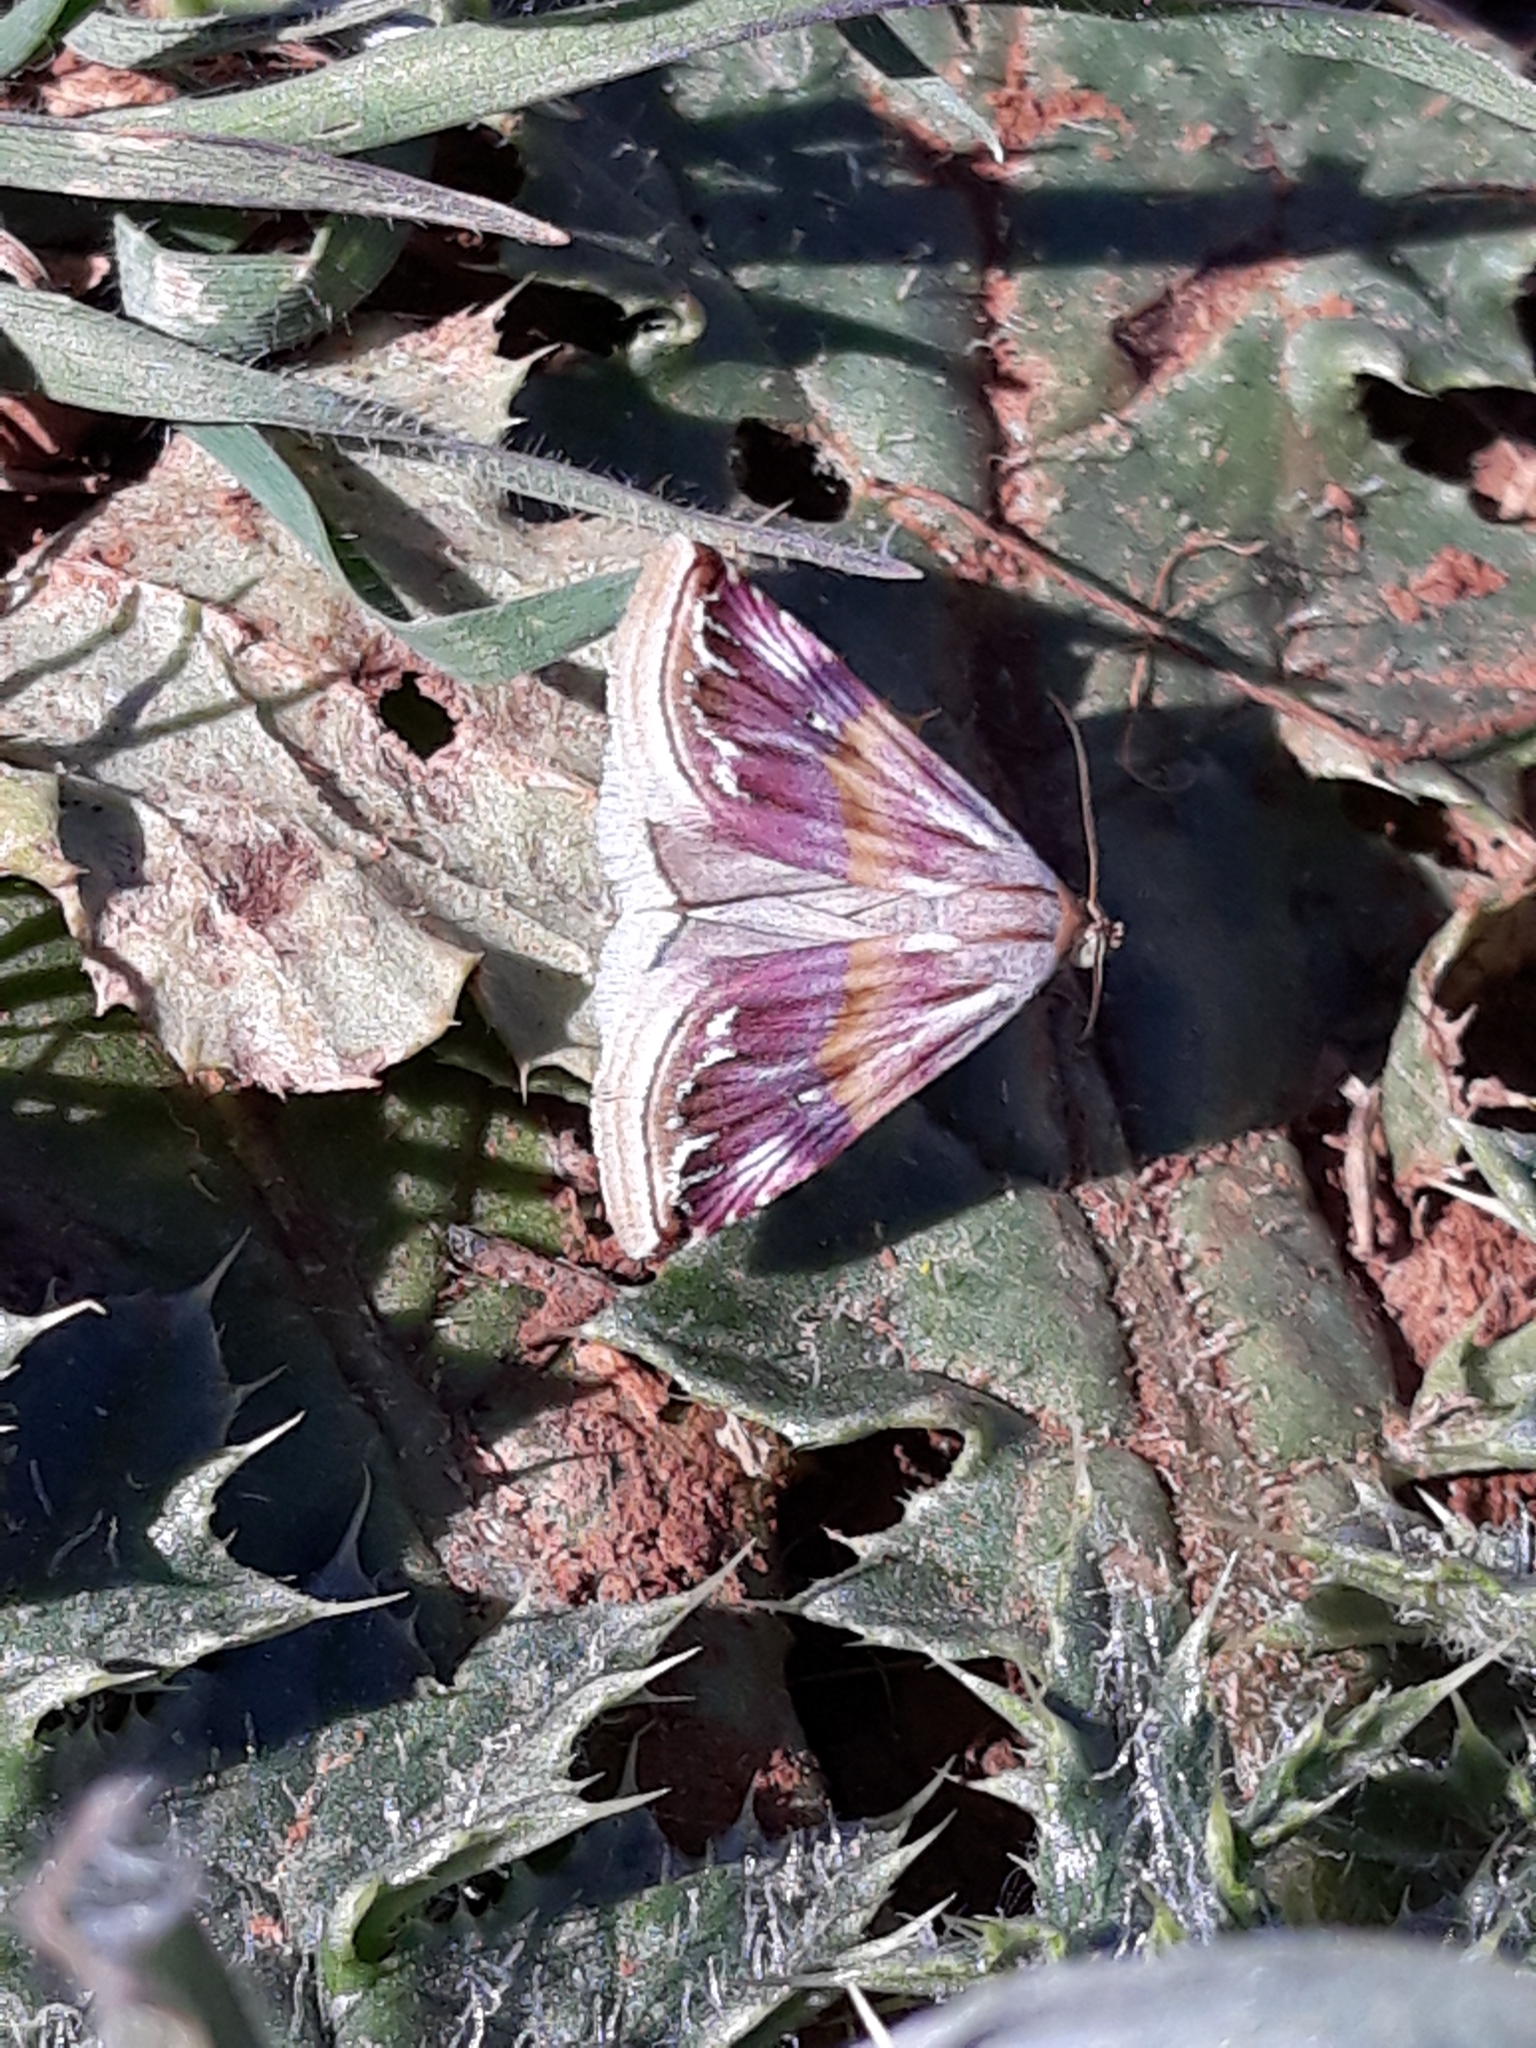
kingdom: Animalia
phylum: Arthropoda
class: Insecta
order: Lepidoptera
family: Noctuidae
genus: Eublemma
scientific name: Eublemma ostrina
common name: Purple marbled
